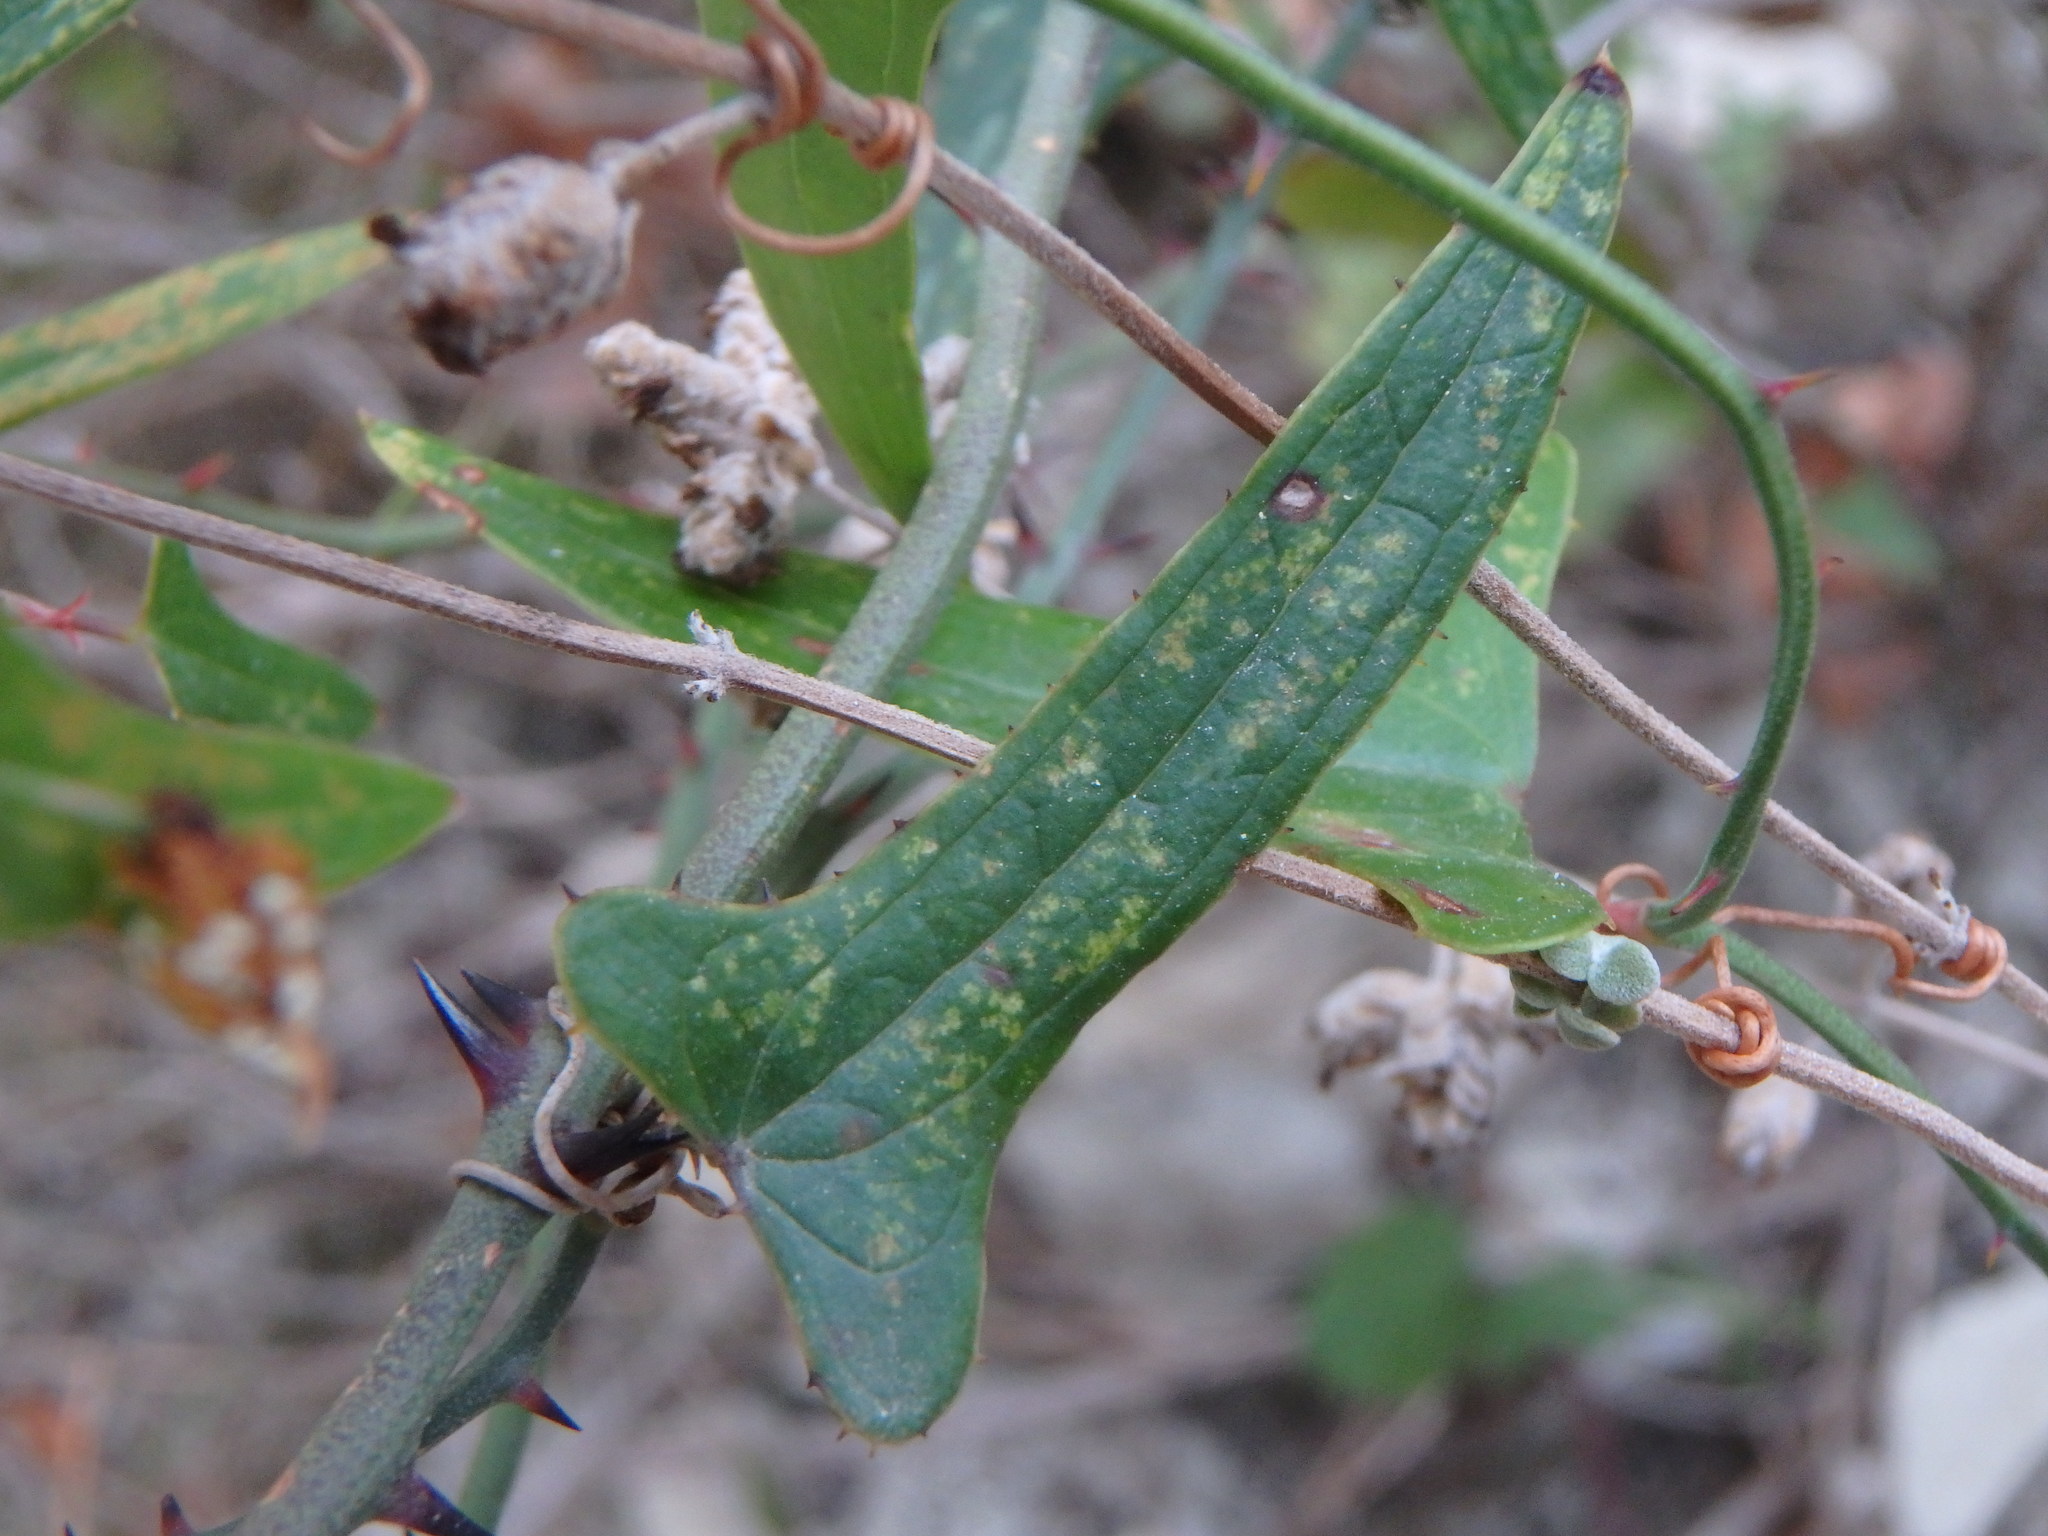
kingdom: Plantae
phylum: Tracheophyta
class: Liliopsida
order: Liliales
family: Smilacaceae
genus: Smilax
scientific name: Smilax aspera
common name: Common smilax
